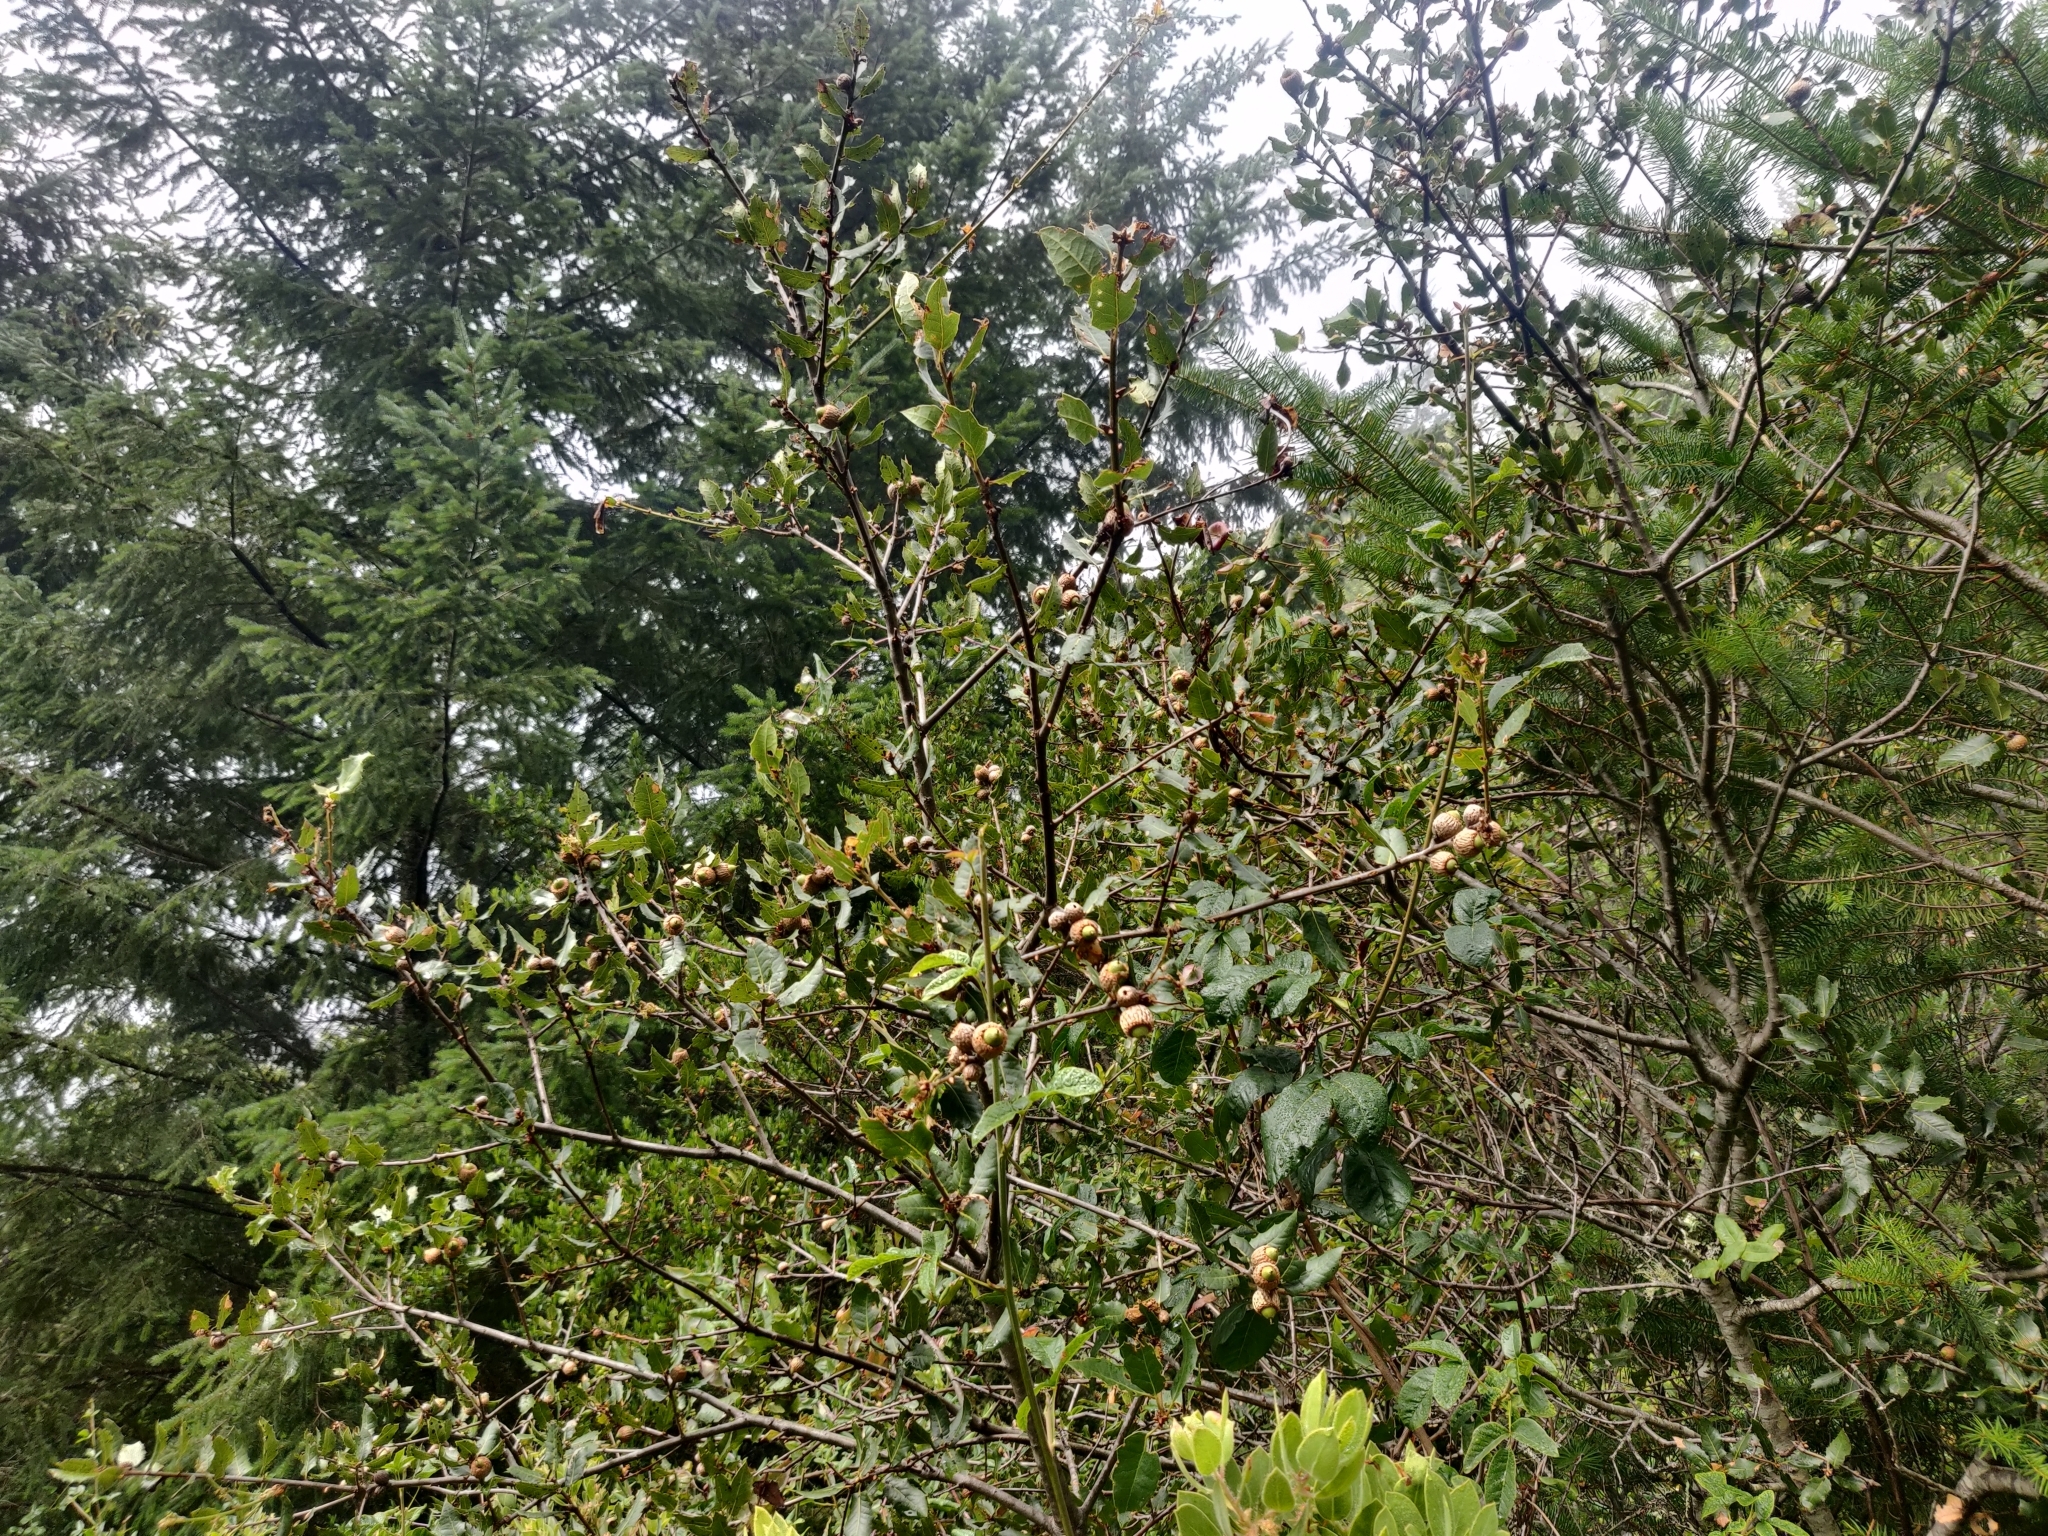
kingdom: Plantae
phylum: Tracheophyta
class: Magnoliopsida
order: Fagales
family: Fagaceae
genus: Quercus
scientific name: Quercus parvula
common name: Santa cruz island oak
